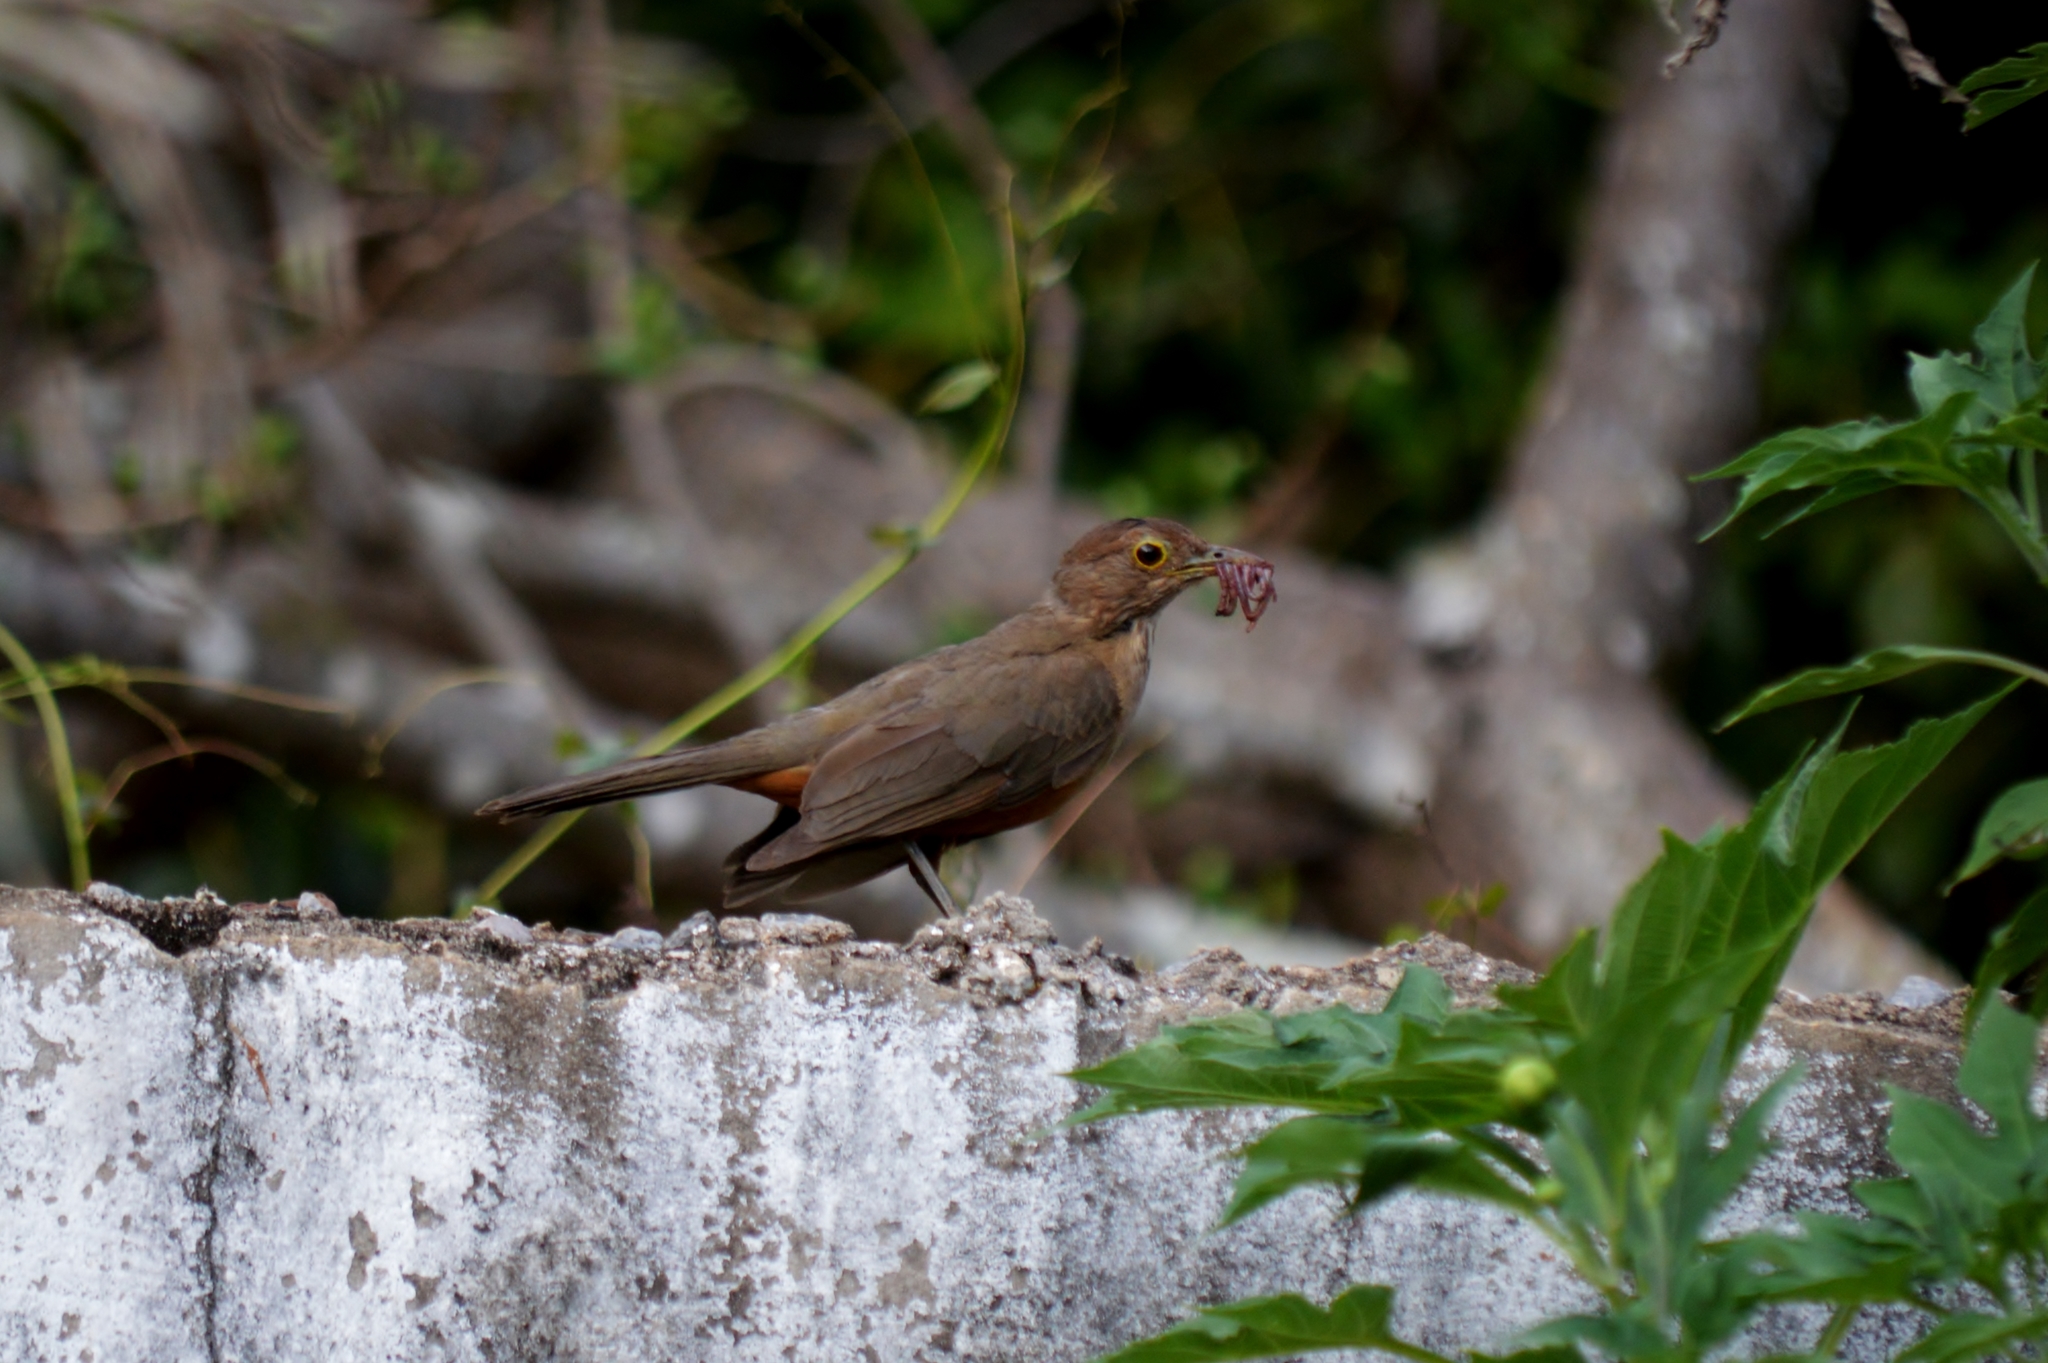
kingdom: Animalia
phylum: Chordata
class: Aves
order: Passeriformes
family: Turdidae
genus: Turdus
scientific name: Turdus rufiventris
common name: Rufous-bellied thrush
